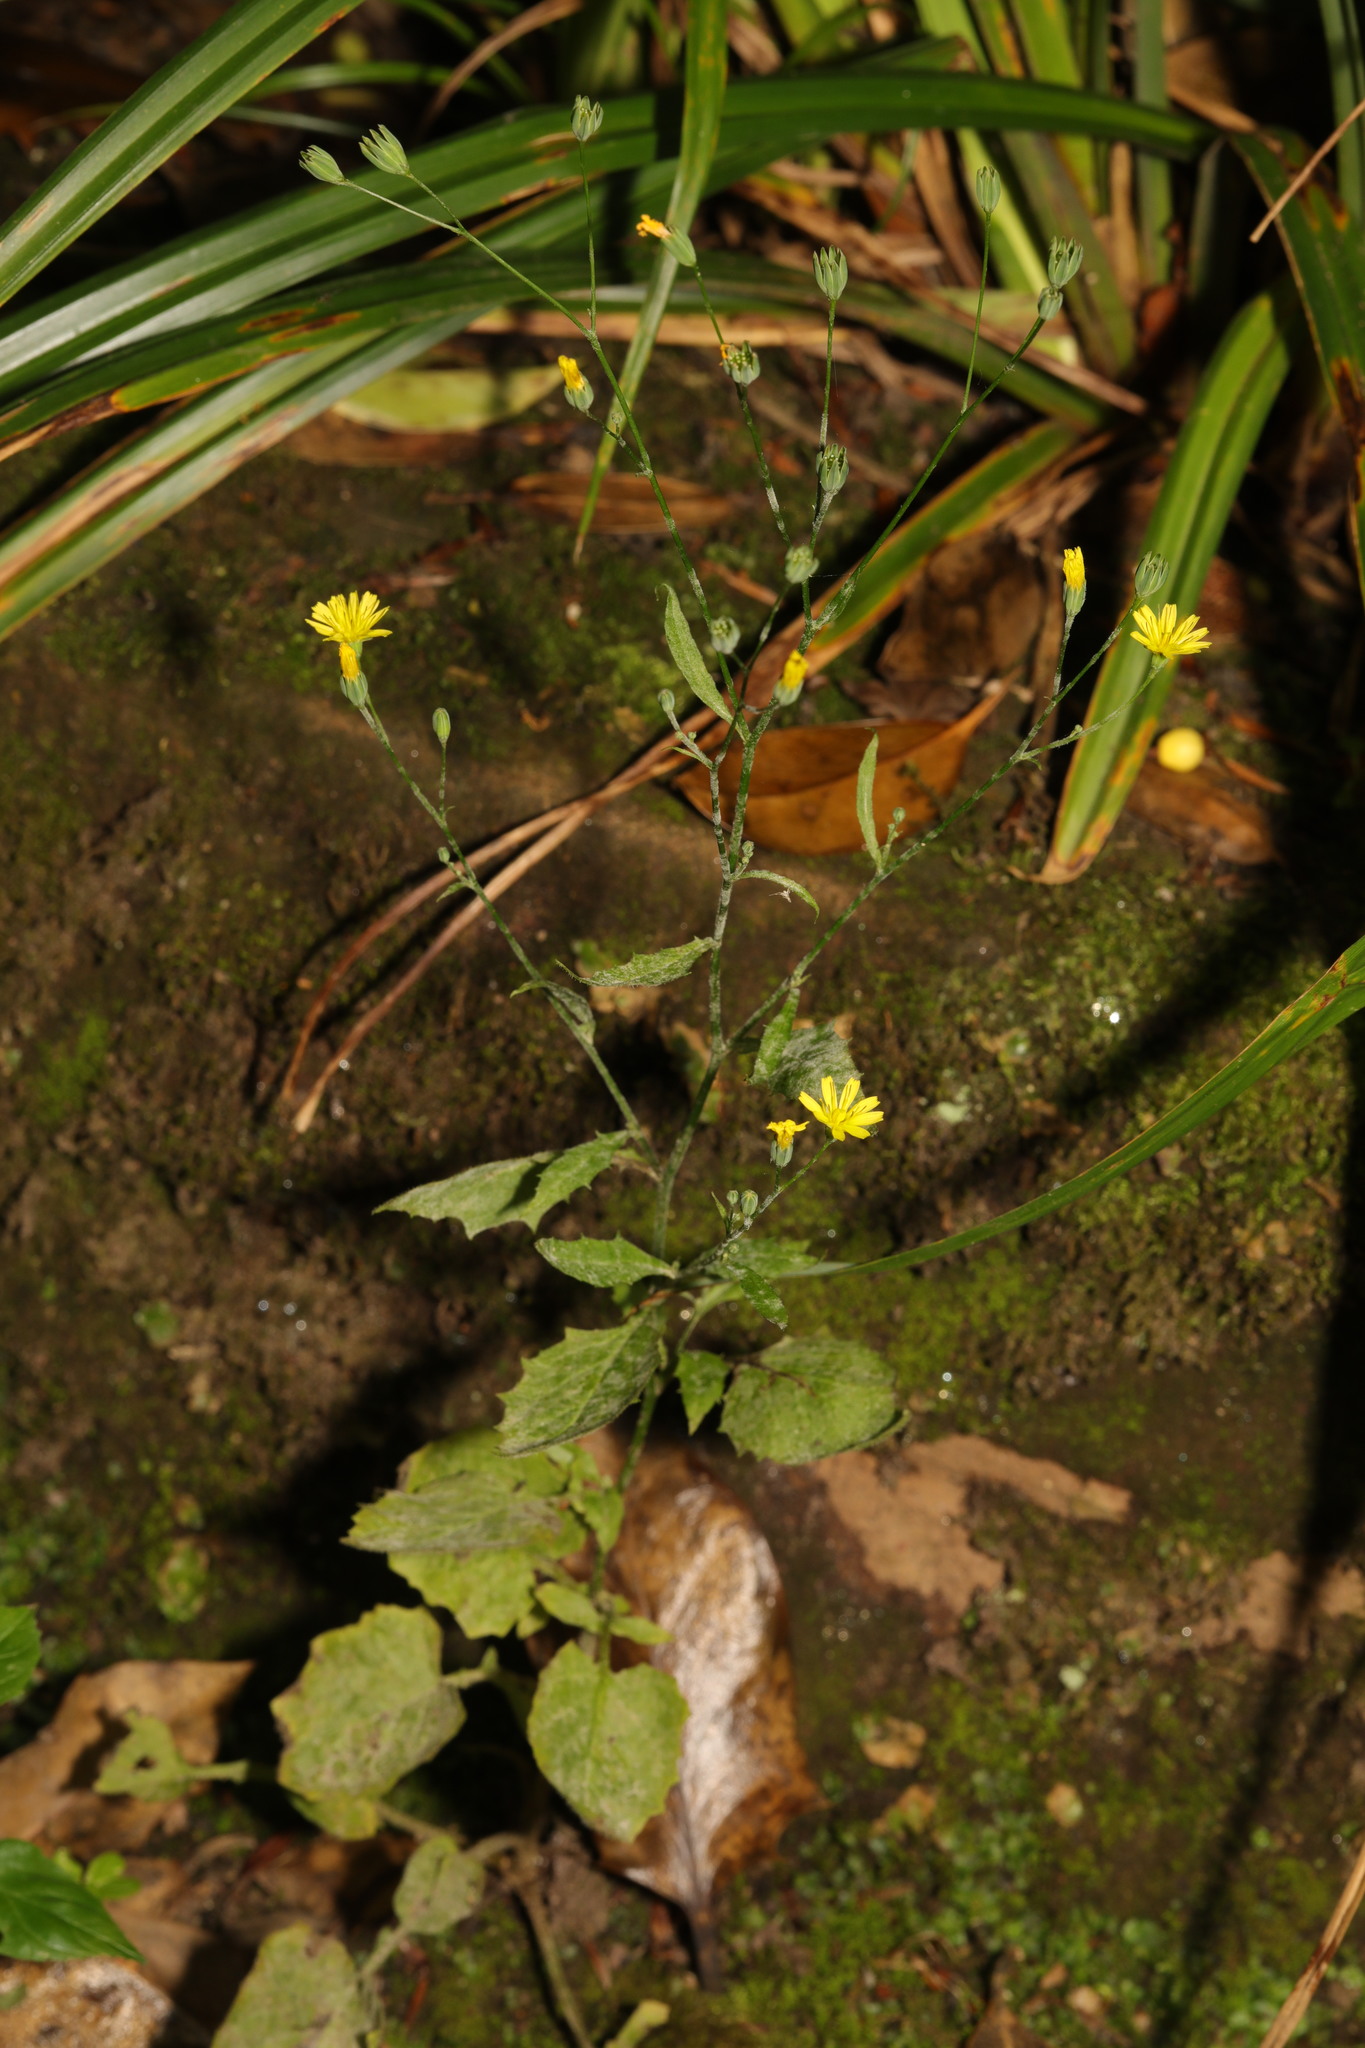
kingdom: Plantae
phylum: Tracheophyta
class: Magnoliopsida
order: Asterales
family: Asteraceae
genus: Lapsana
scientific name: Lapsana communis
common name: Nipplewort
